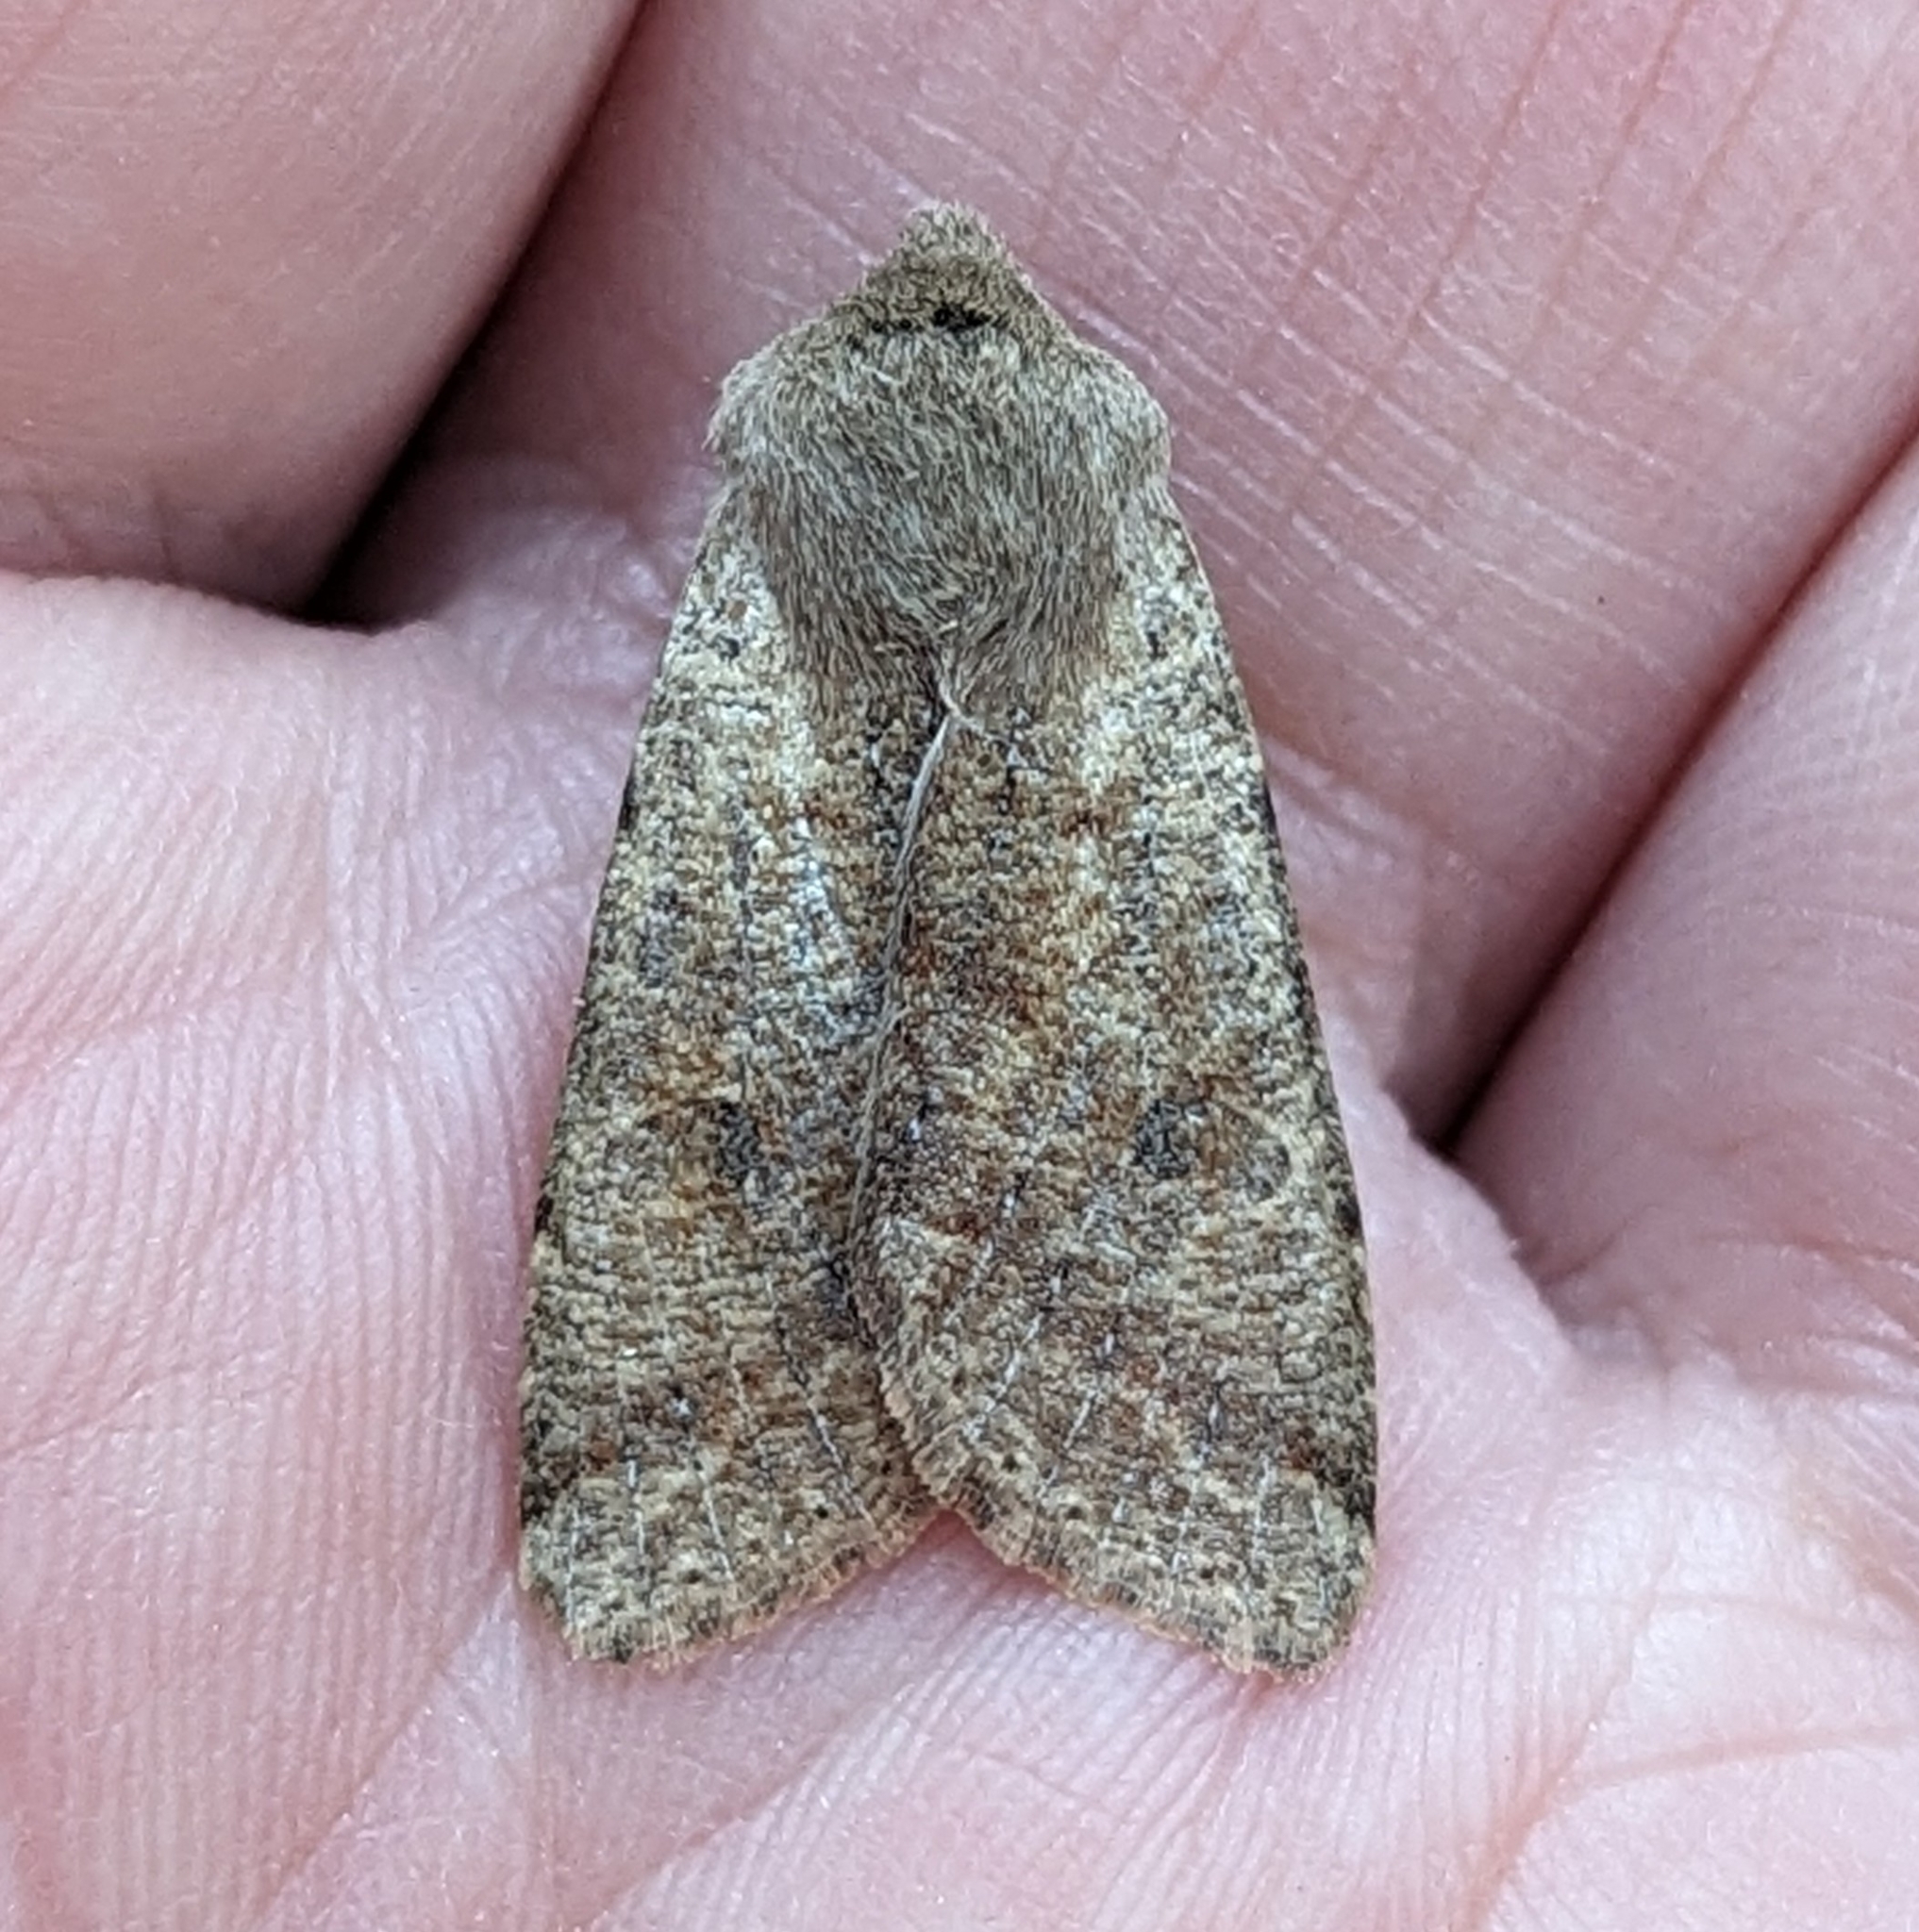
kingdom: Animalia
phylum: Arthropoda
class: Insecta
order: Lepidoptera
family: Noctuidae
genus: Orthosia
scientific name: Orthosia pacifica
